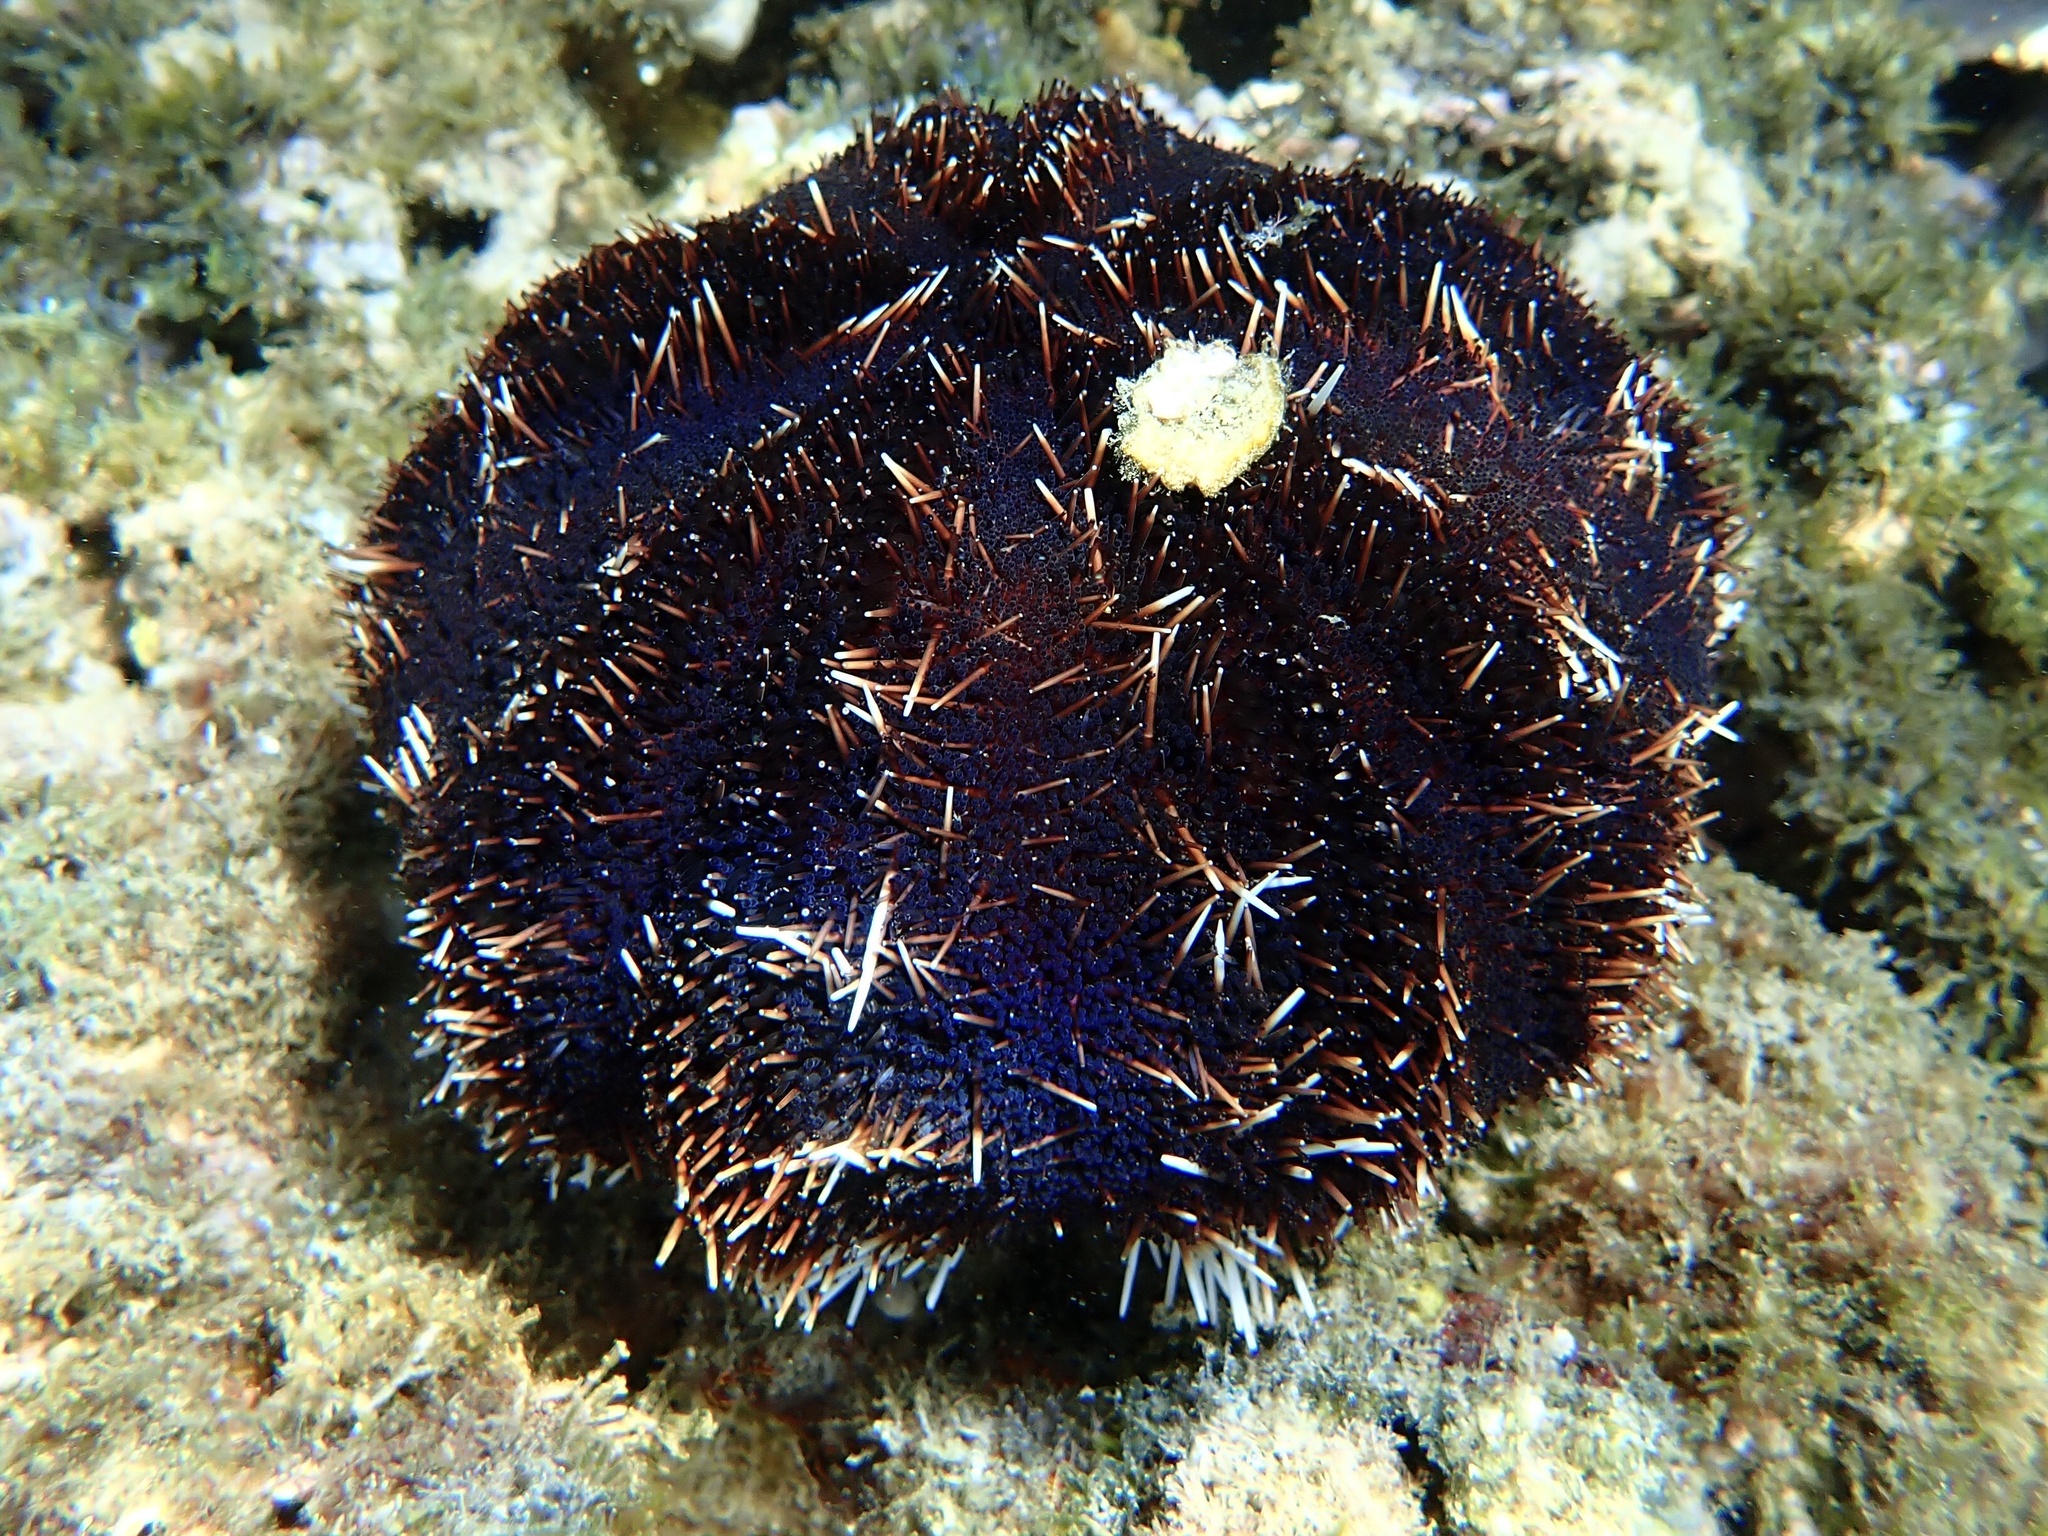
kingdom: Animalia
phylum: Echinodermata
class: Echinoidea
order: Camarodonta
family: Toxopneustidae
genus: Tripneustes
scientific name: Tripneustes gratilla
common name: Bischofsmützenseeigel
